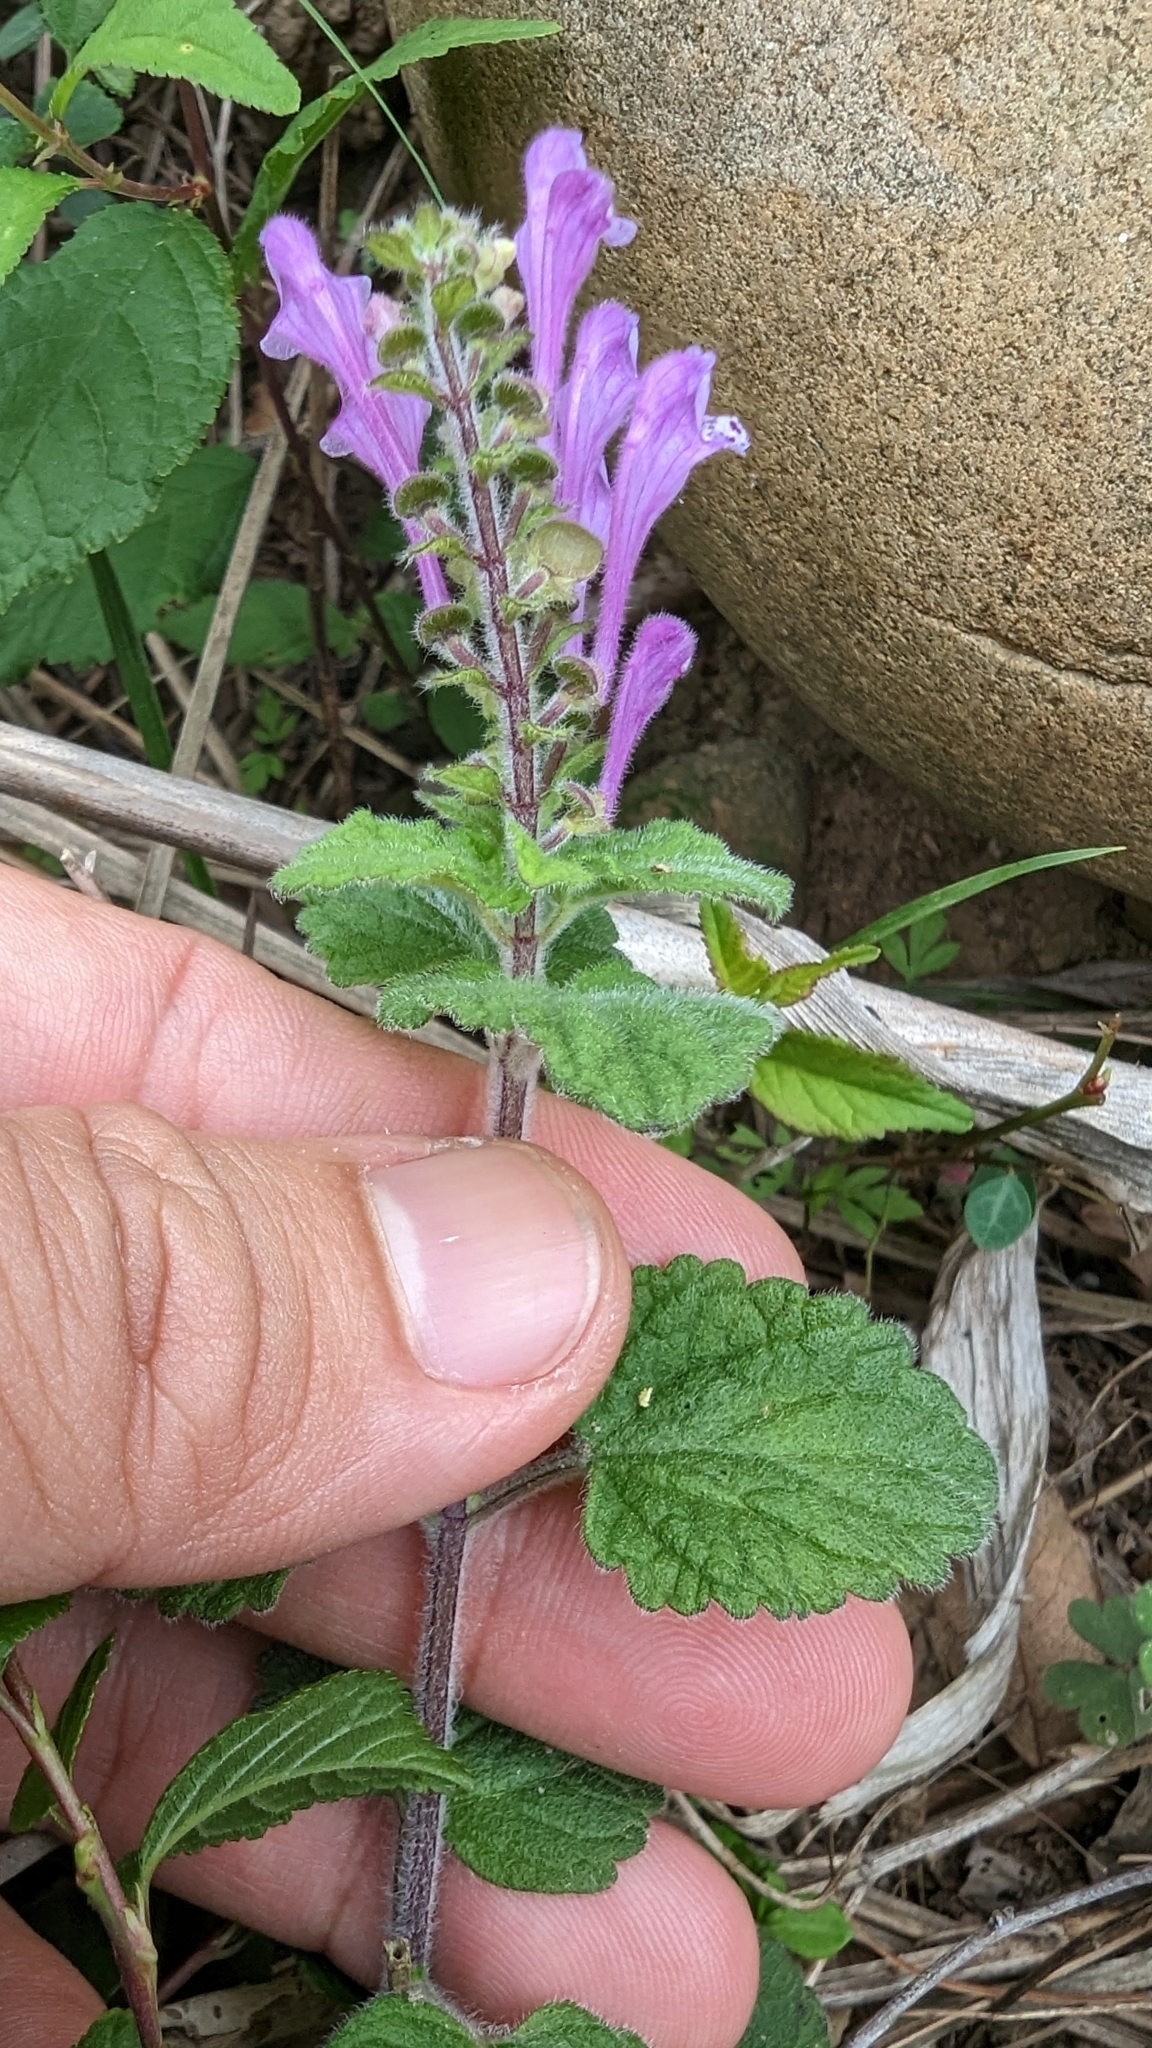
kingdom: Plantae
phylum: Tracheophyta
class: Magnoliopsida
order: Lamiales
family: Lamiaceae
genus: Scutellaria
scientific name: Scutellaria indica
